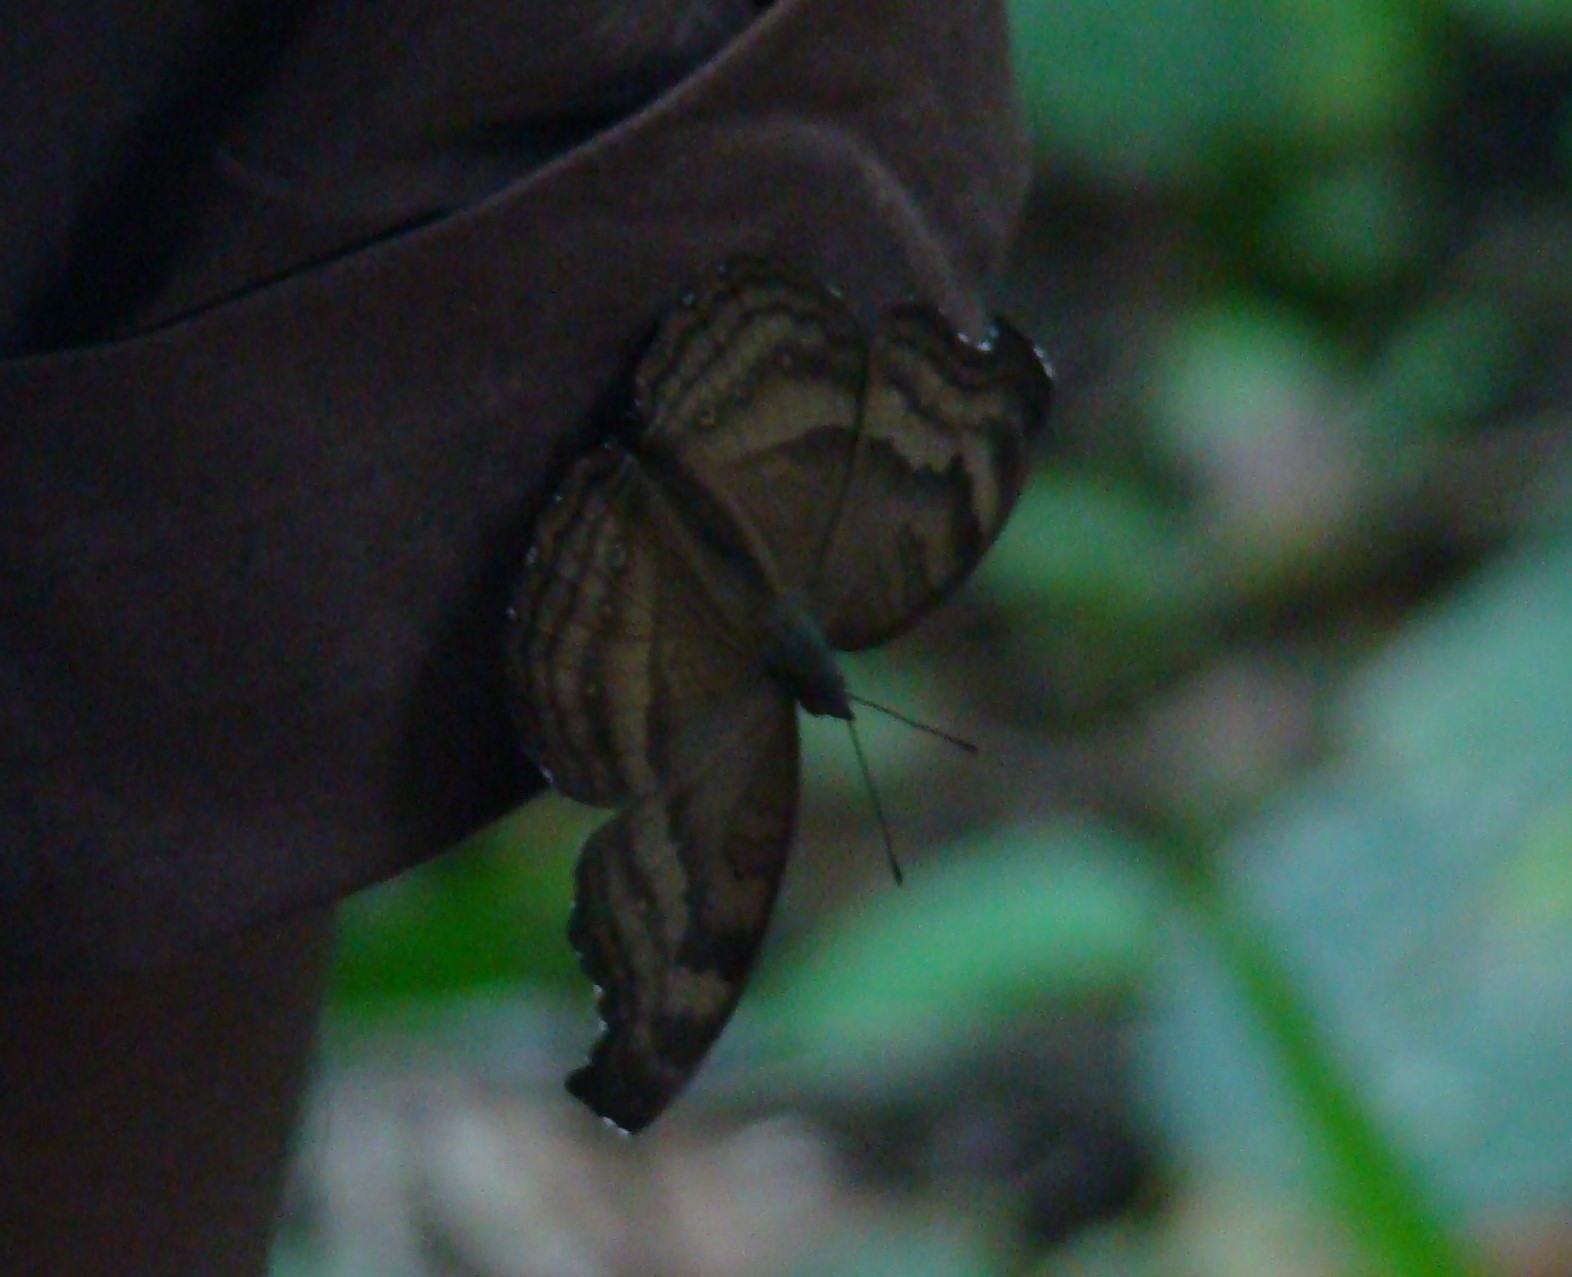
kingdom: Animalia
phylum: Arthropoda
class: Insecta
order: Lepidoptera
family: Nymphalidae
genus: Junonia
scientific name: Junonia iphita
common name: Chocolate pansy
